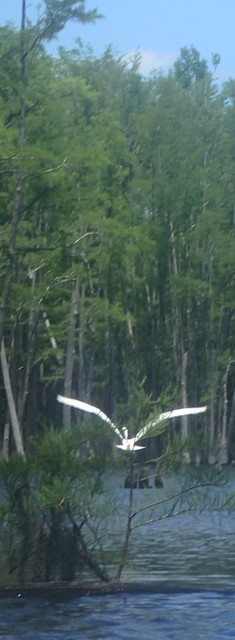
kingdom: Animalia
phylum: Chordata
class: Aves
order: Pelecaniformes
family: Ardeidae
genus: Ardea
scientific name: Ardea alba
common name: Great egret
